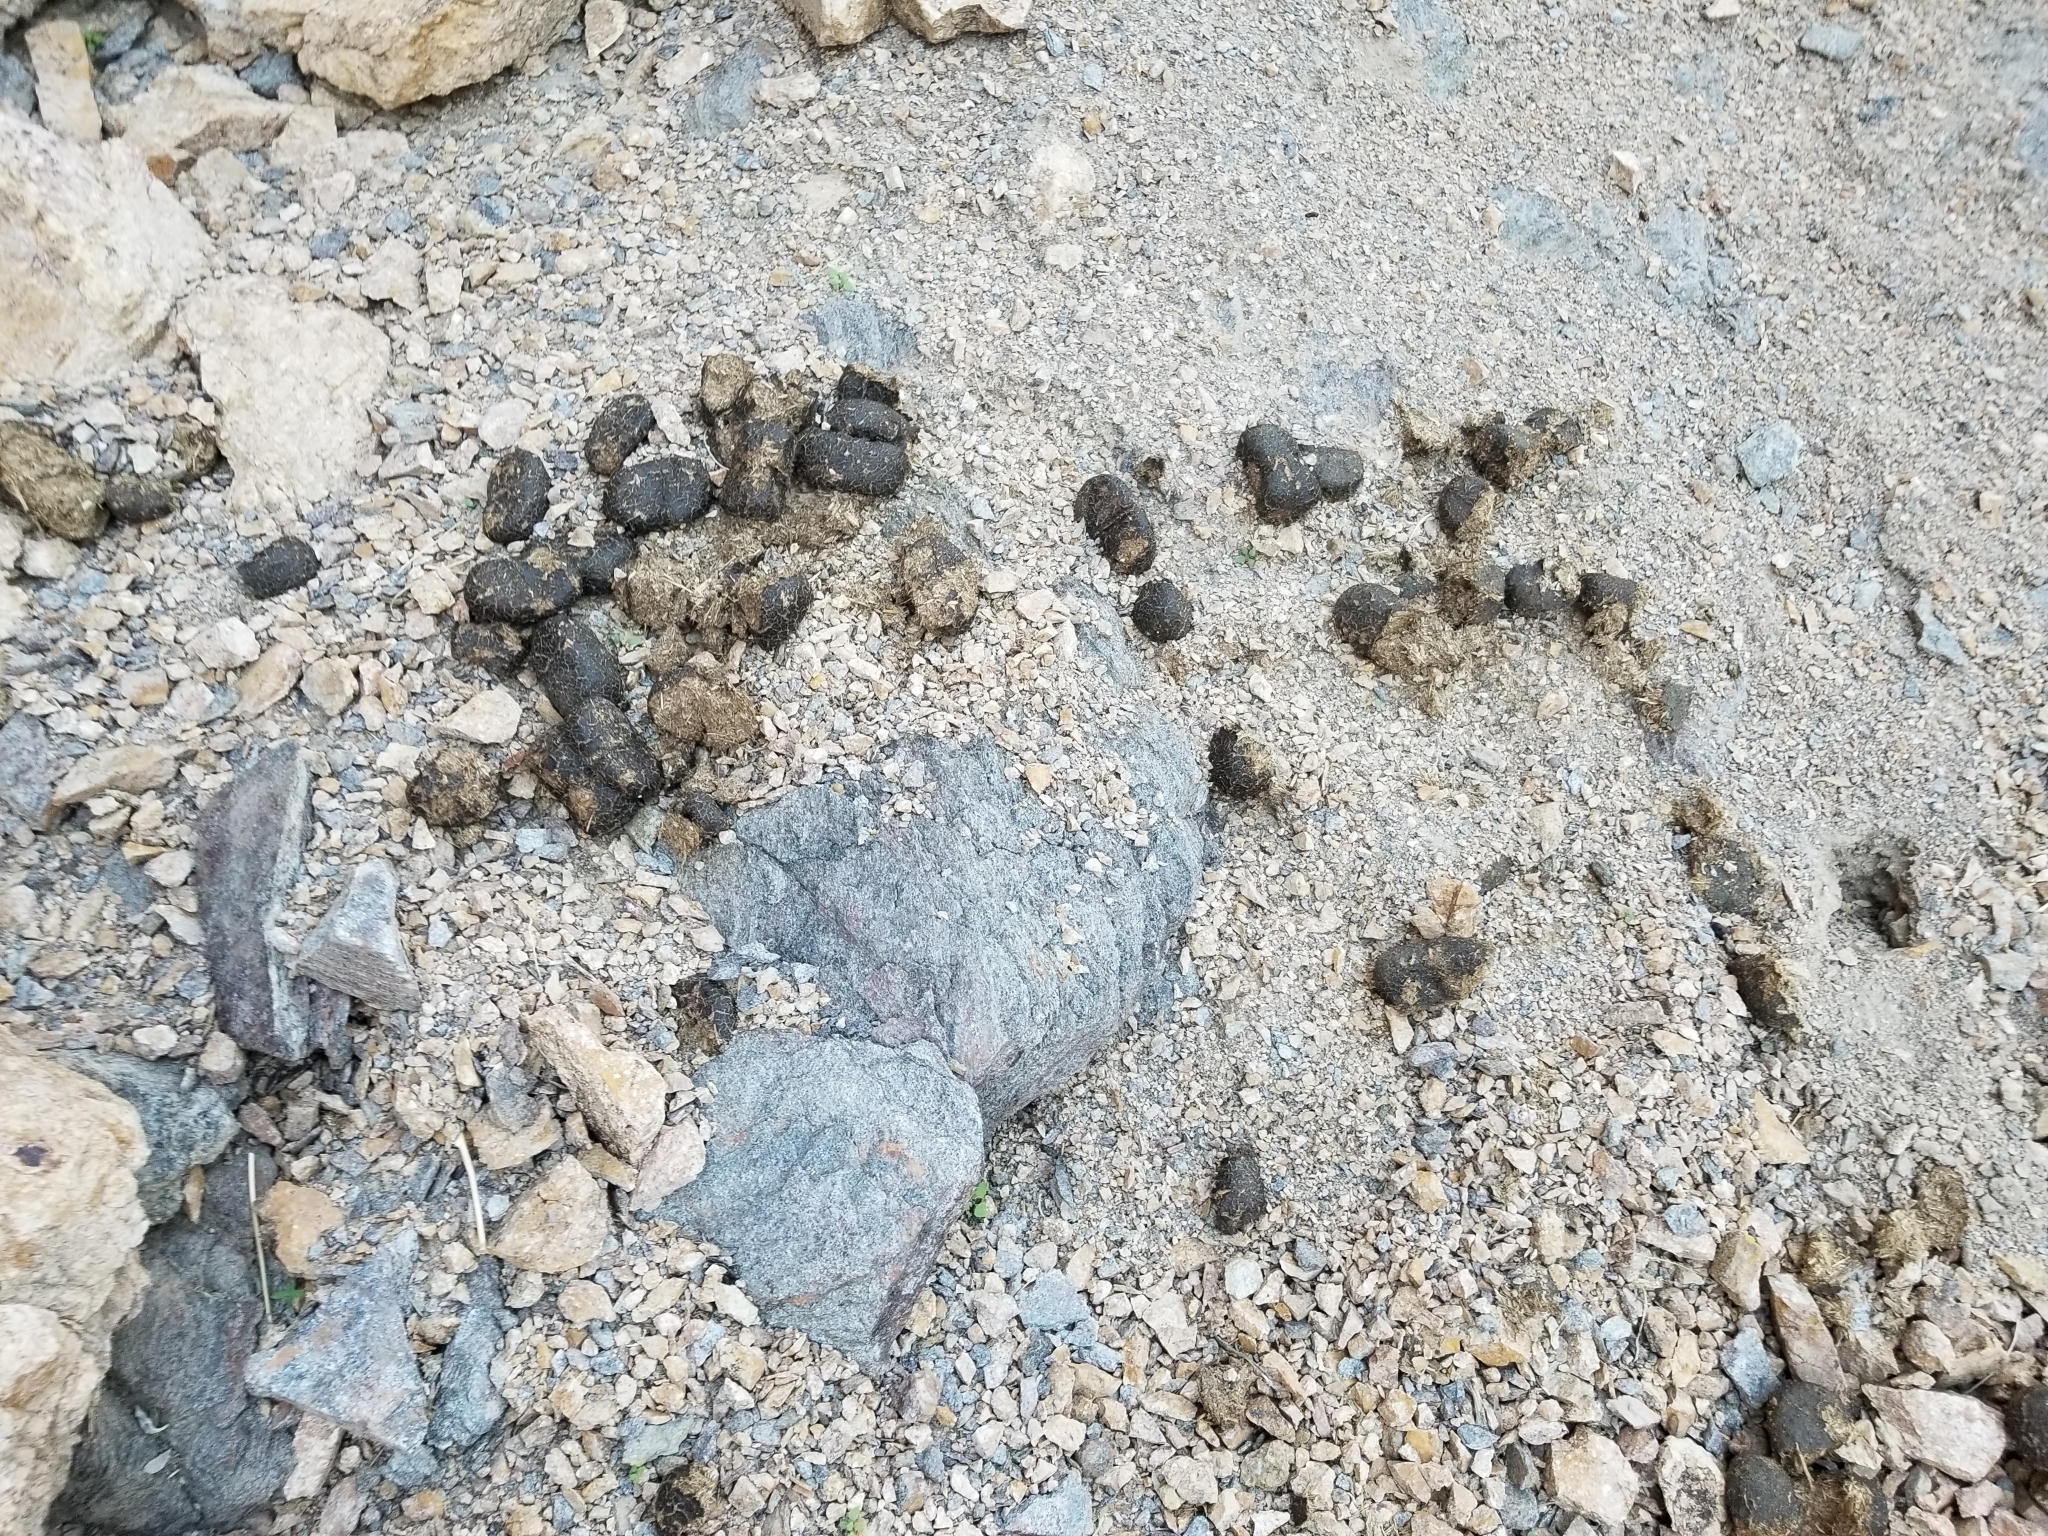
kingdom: Animalia
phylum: Chordata
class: Mammalia
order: Perissodactyla
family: Equidae
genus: Equus
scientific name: Equus asinus
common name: Ass
